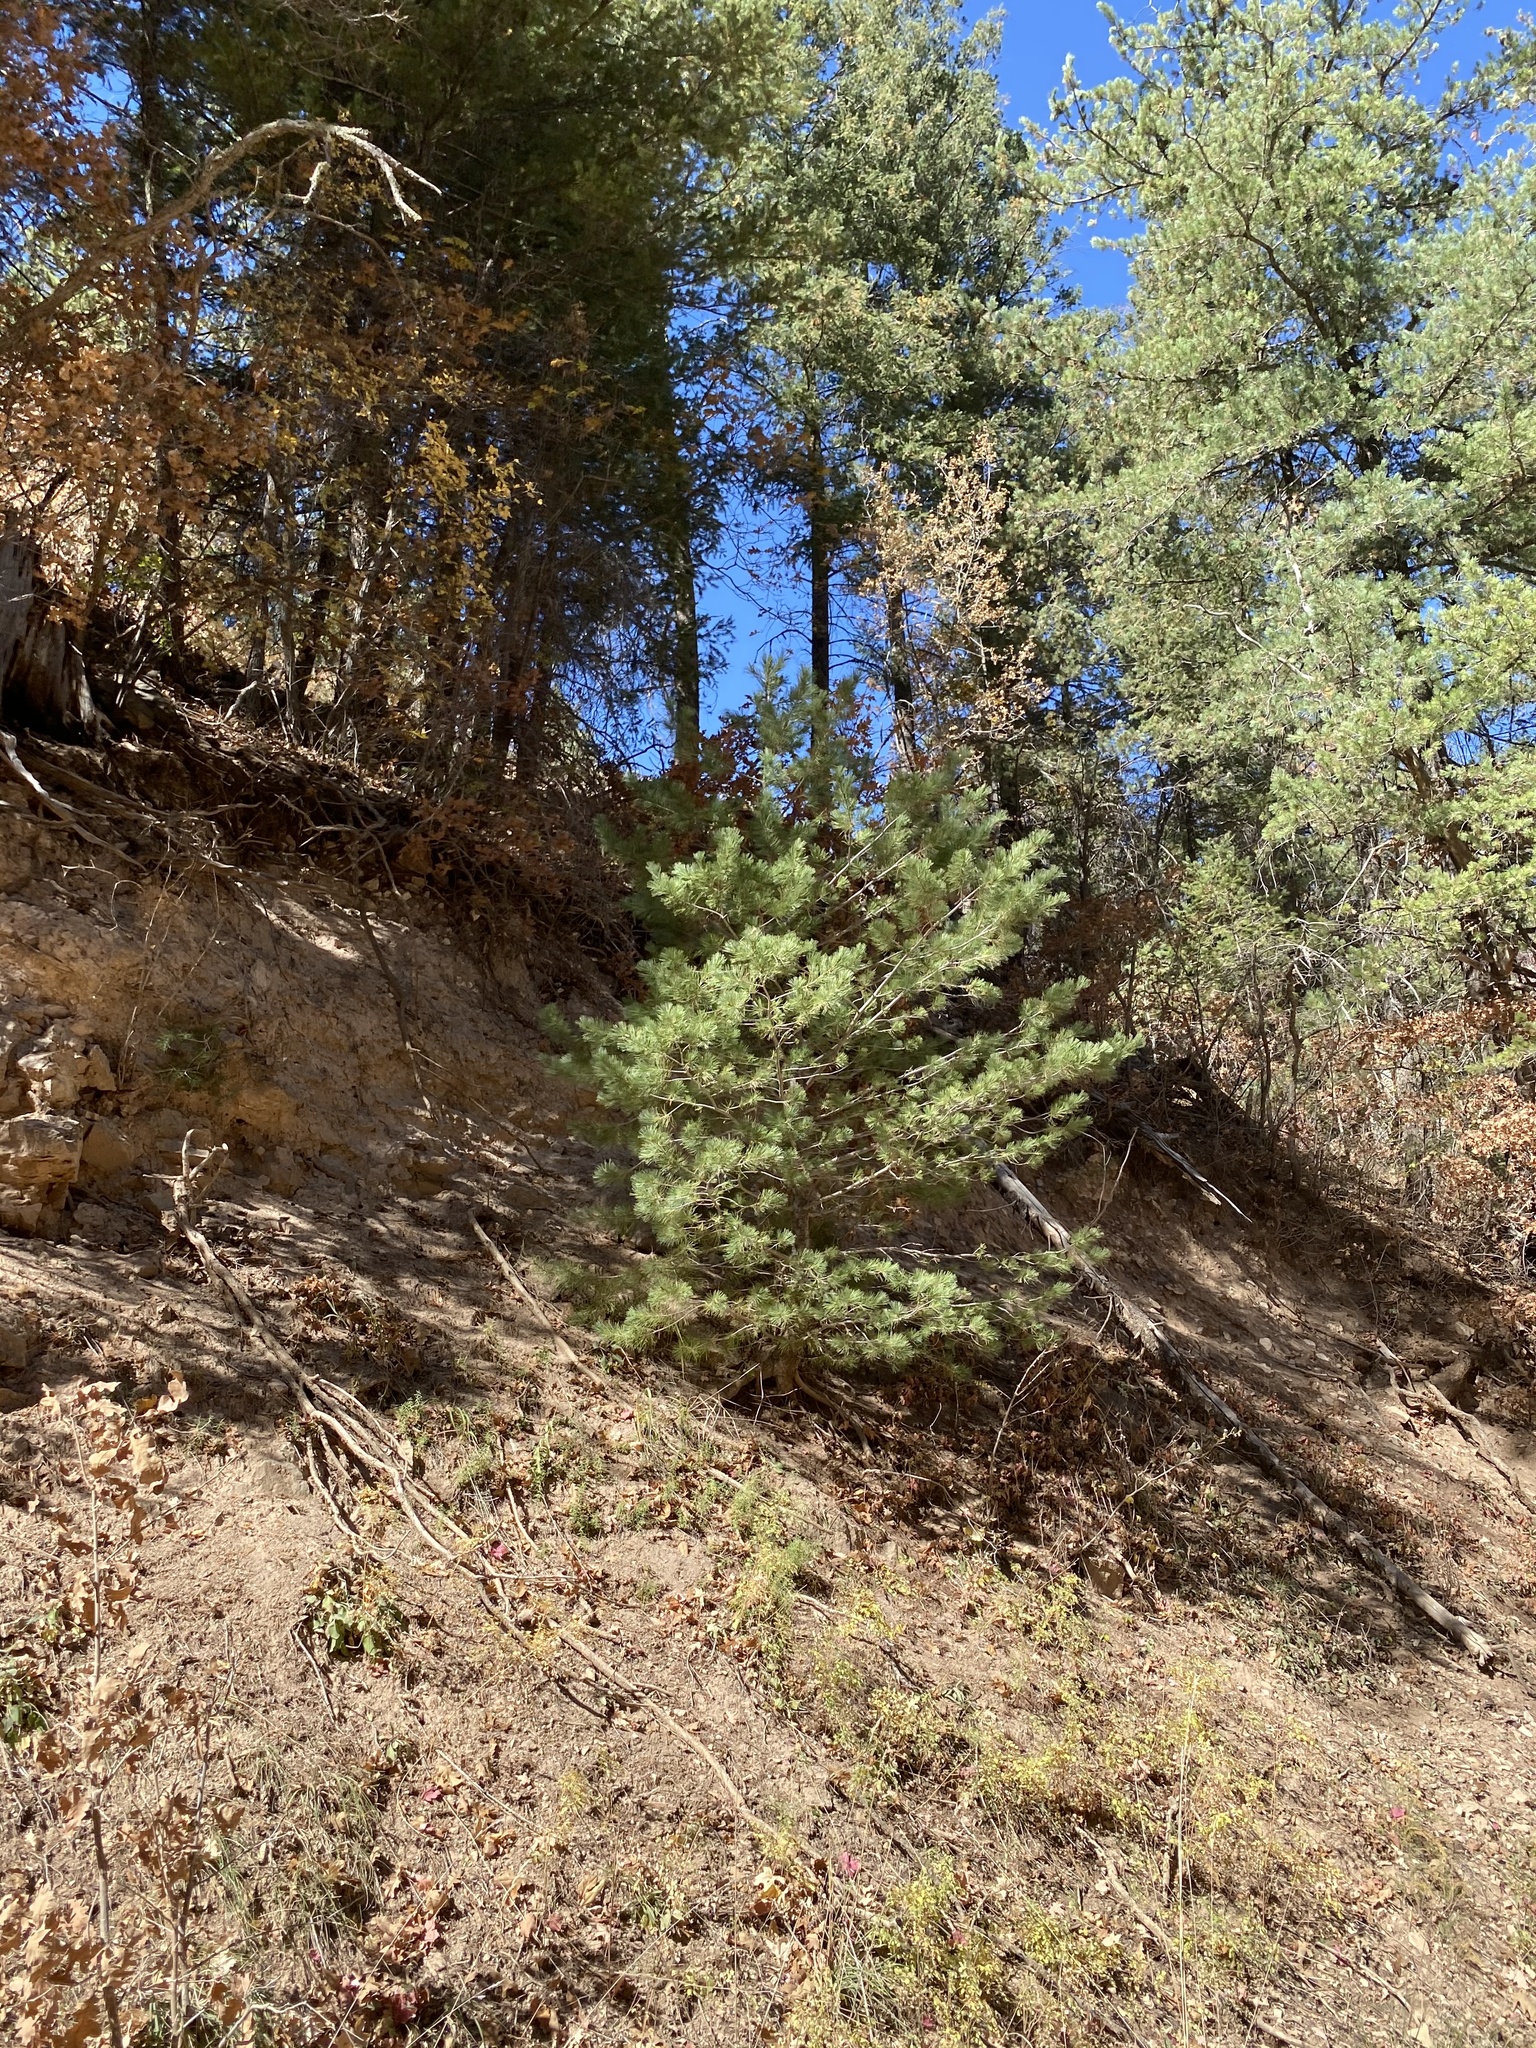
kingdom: Plantae
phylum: Tracheophyta
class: Pinopsida
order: Pinales
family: Pinaceae
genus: Pinus
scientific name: Pinus strobiformis
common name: Southwestern white pine
